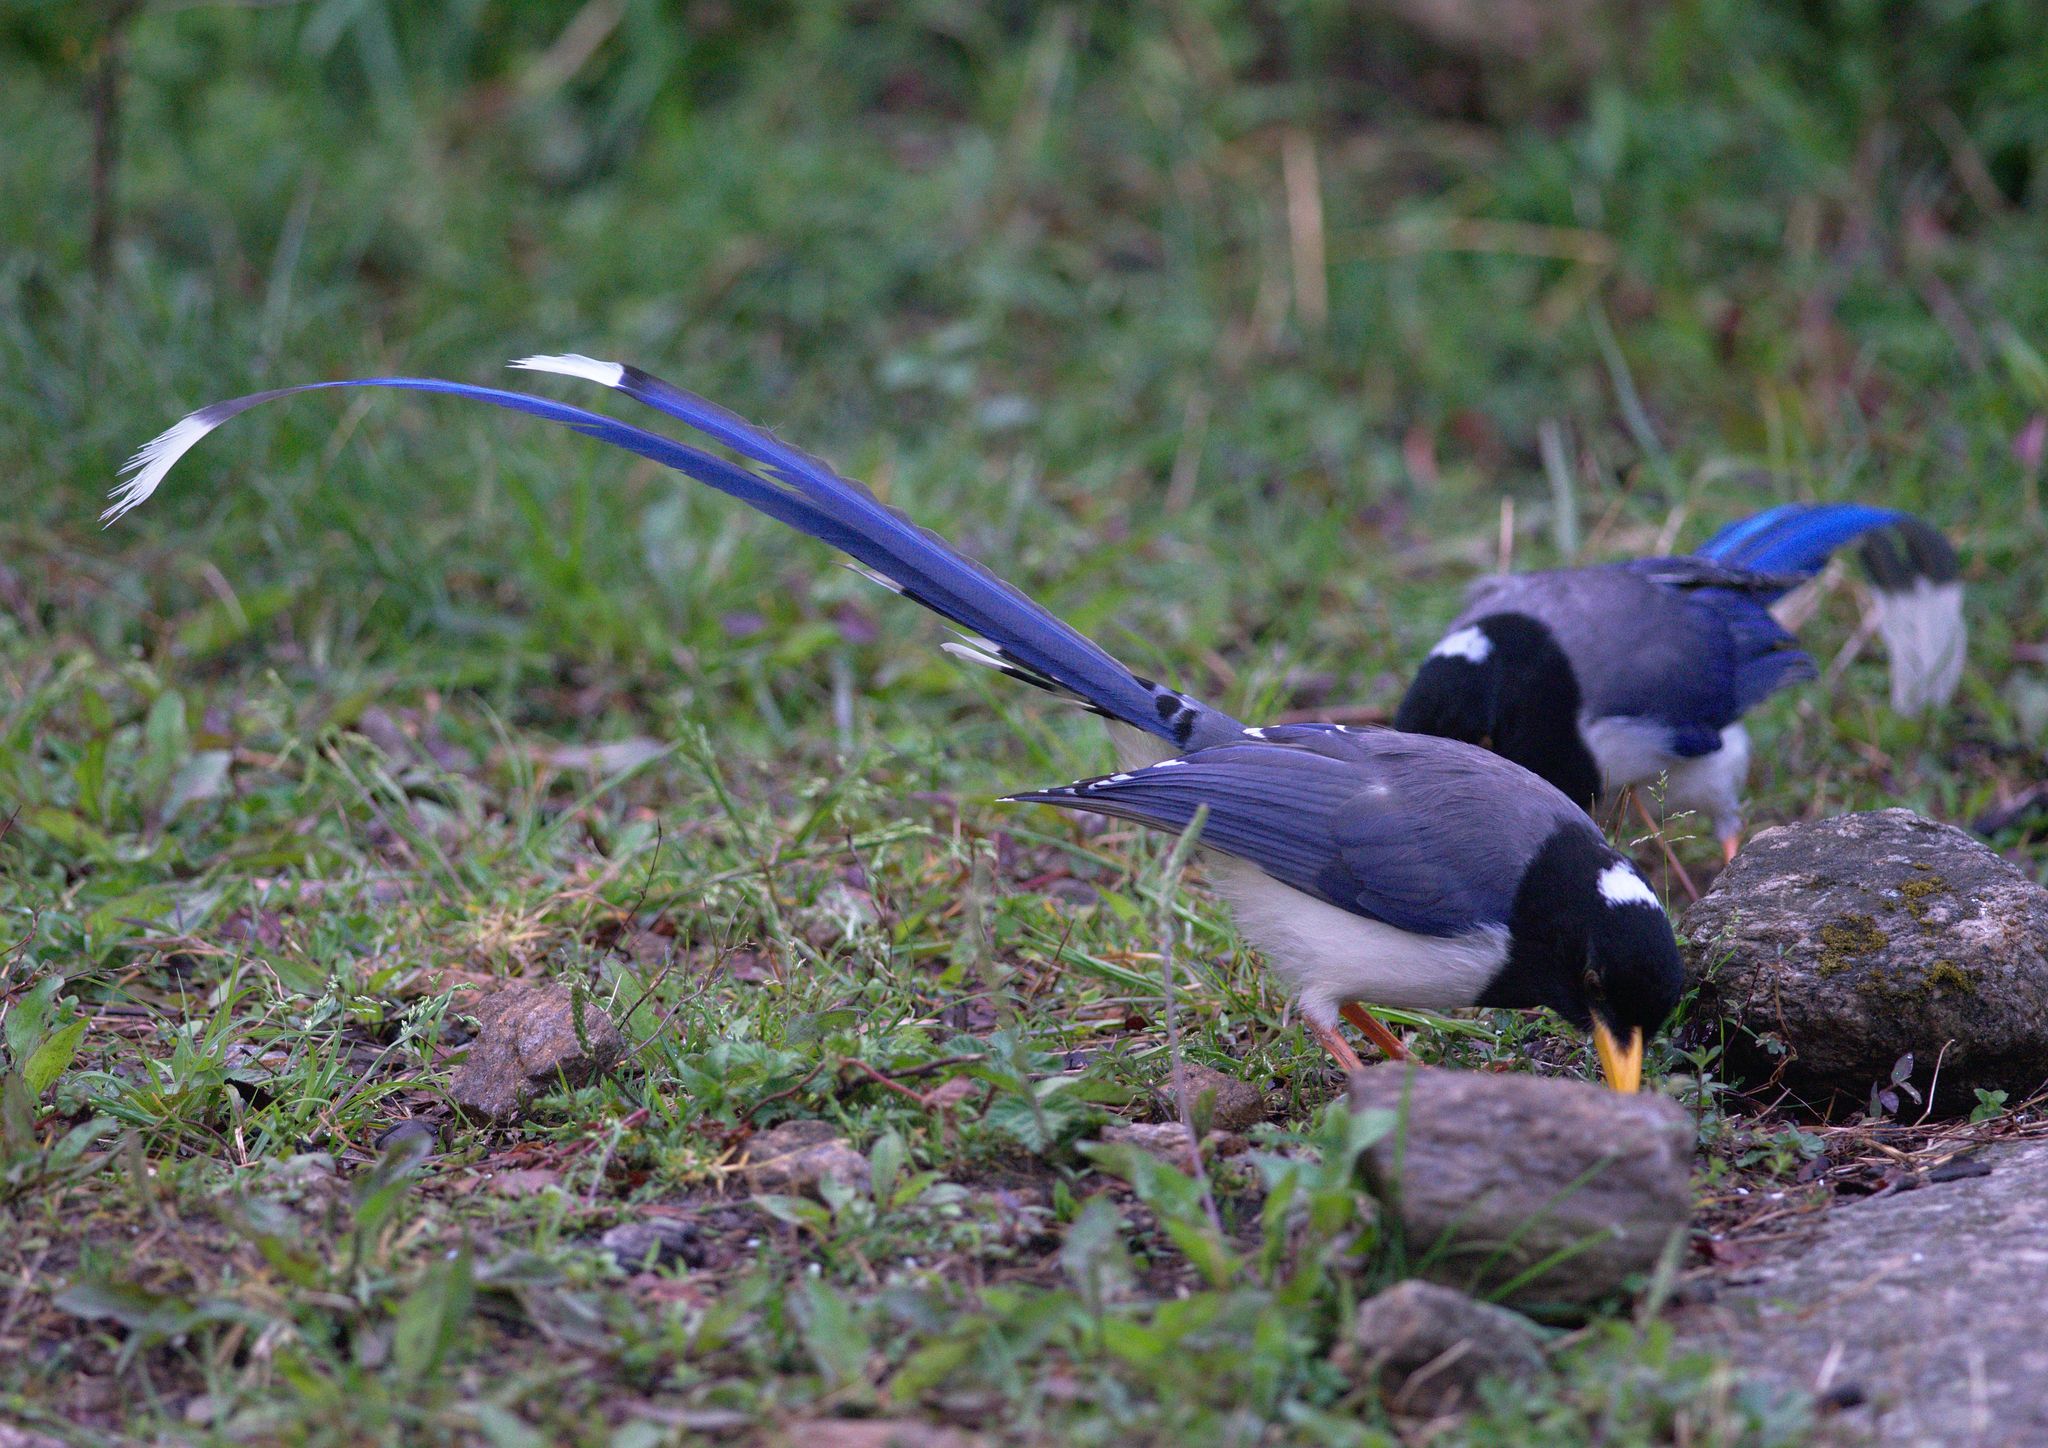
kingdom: Animalia
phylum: Chordata
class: Aves
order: Passeriformes
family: Corvidae
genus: Urocissa
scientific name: Urocissa flavirostris
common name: Yellow-billed blue magpie
